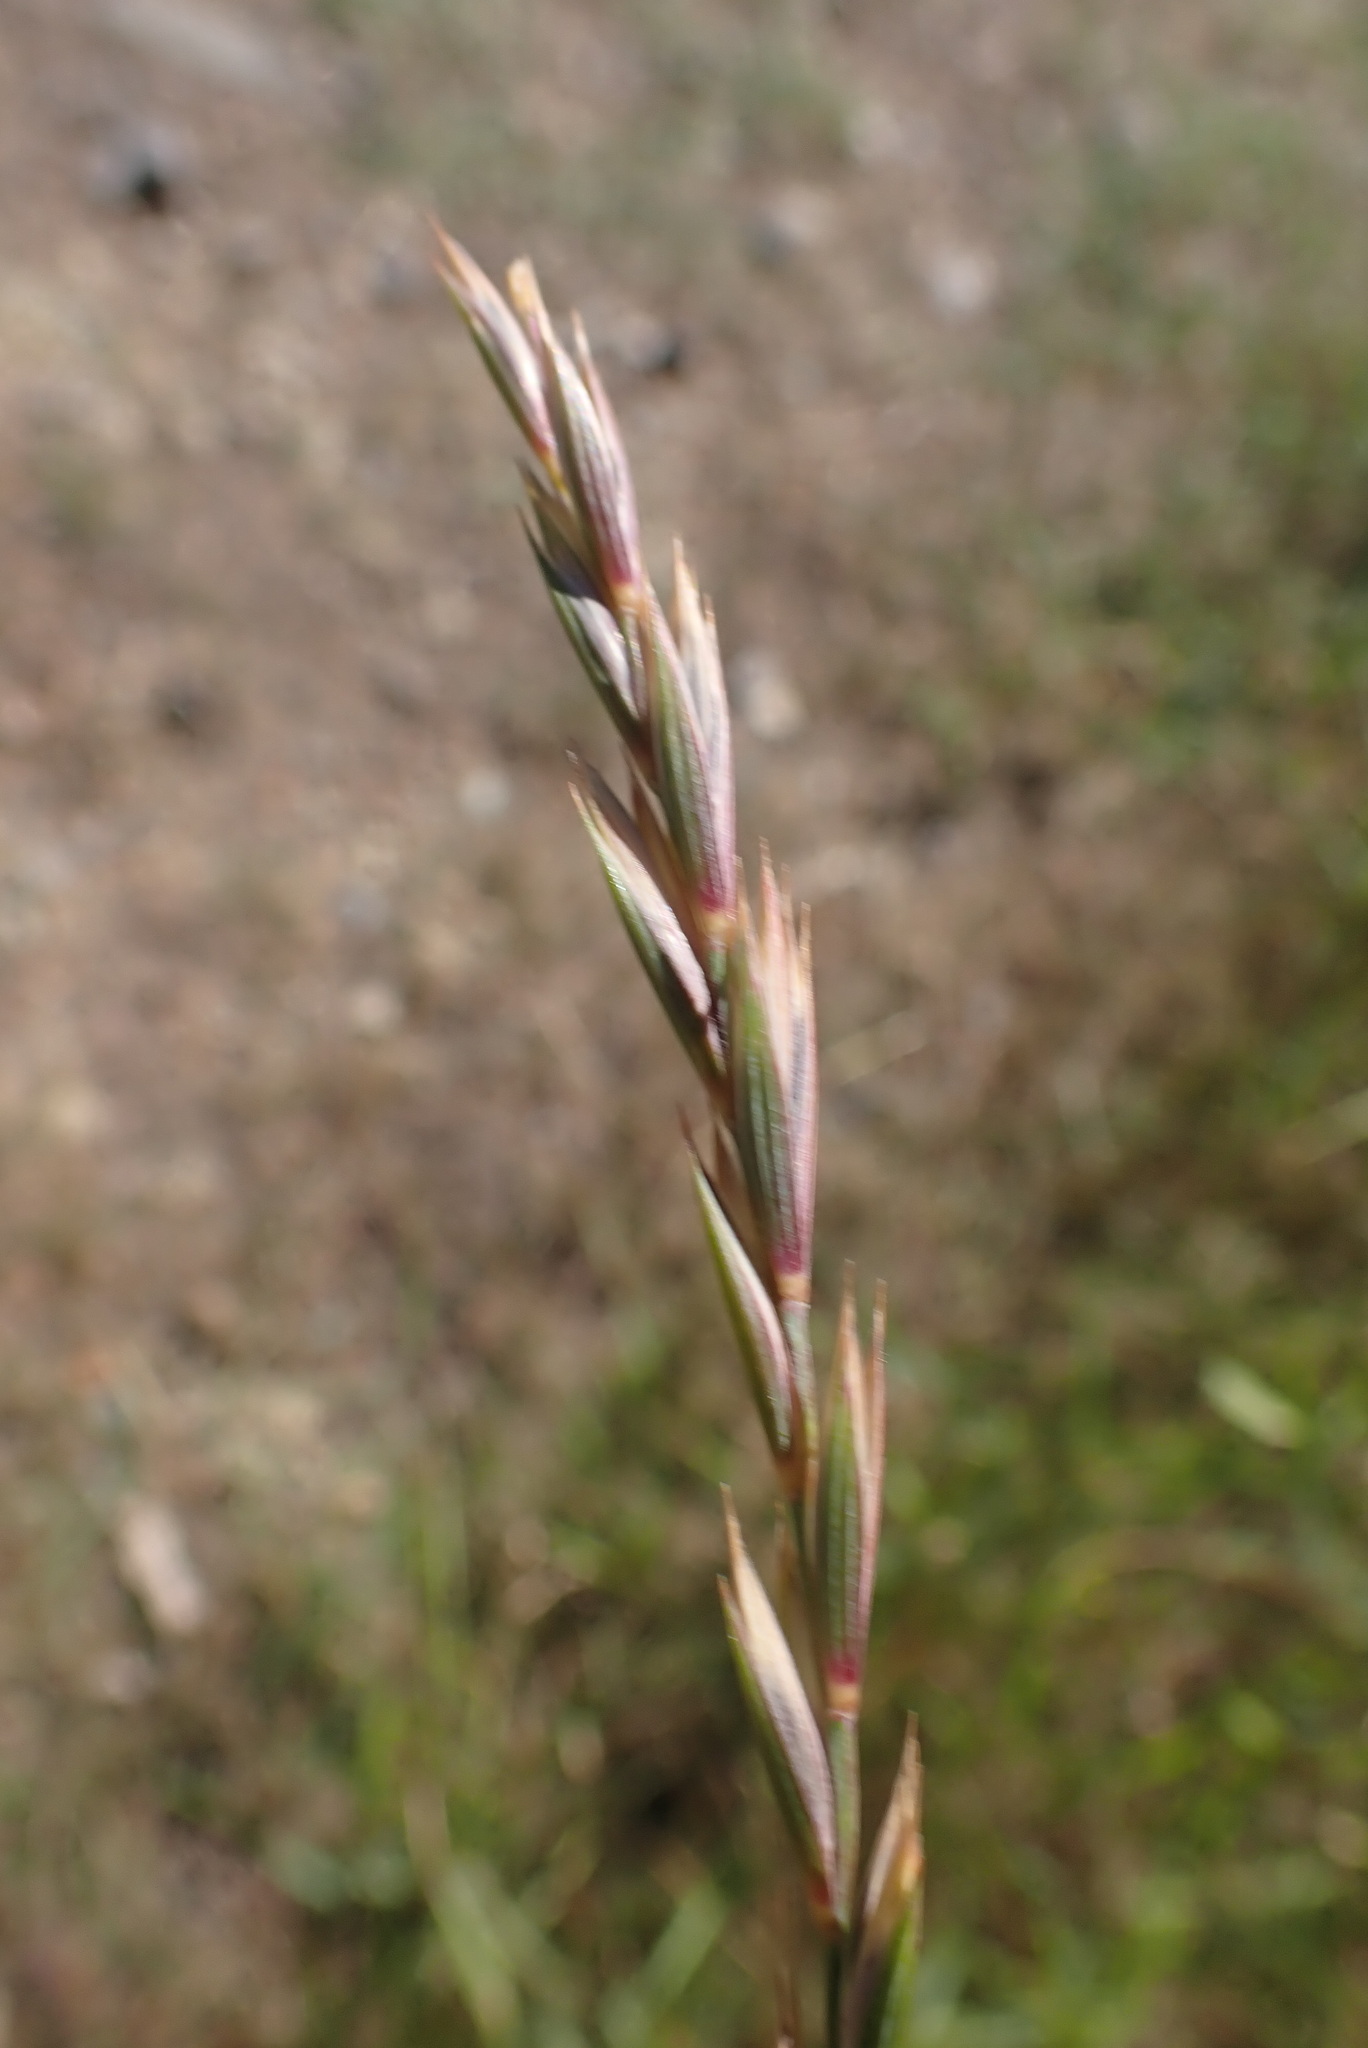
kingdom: Plantae
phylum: Tracheophyta
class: Liliopsida
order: Poales
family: Poaceae
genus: Elymus
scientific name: Elymus violaceus
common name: Arctic wheatgrass
